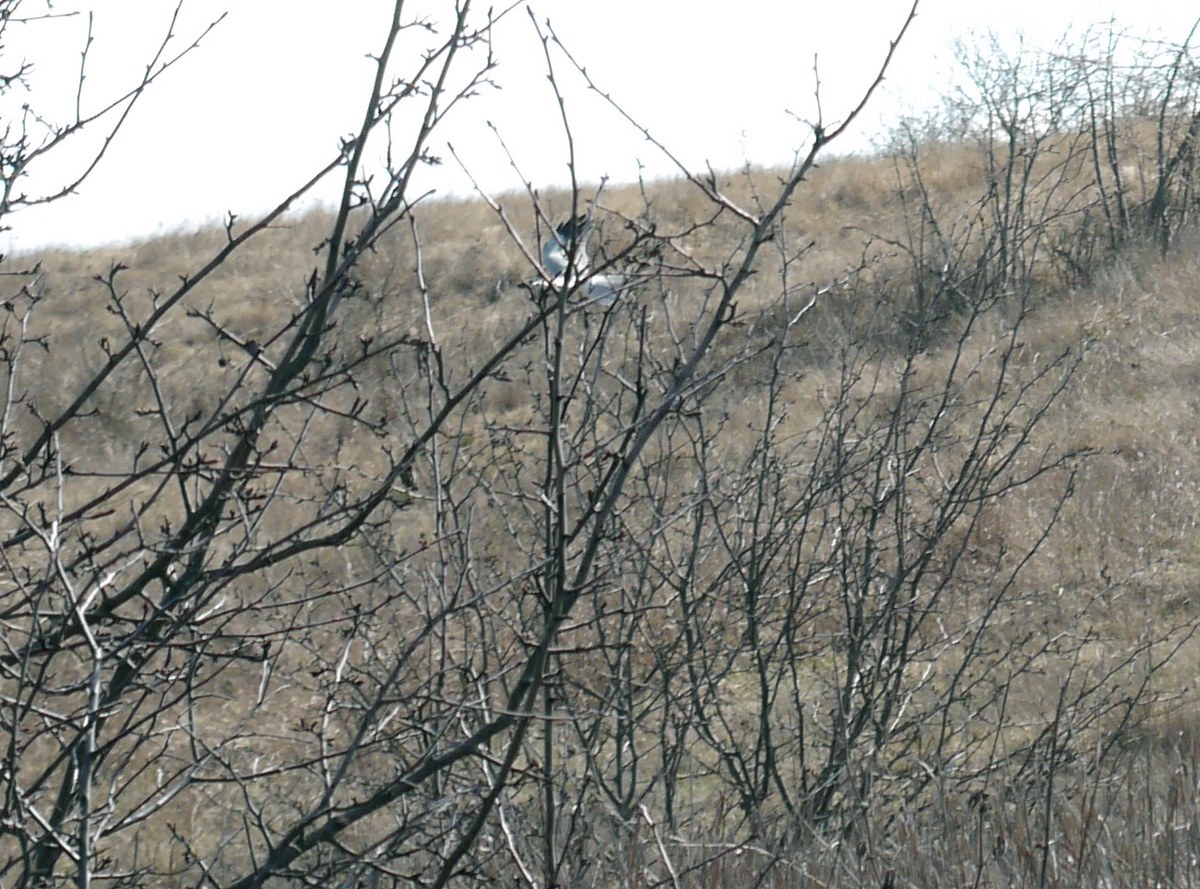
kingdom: Animalia
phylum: Chordata
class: Aves
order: Accipitriformes
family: Accipitridae
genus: Circus
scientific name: Circus cyaneus
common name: Hen harrier
